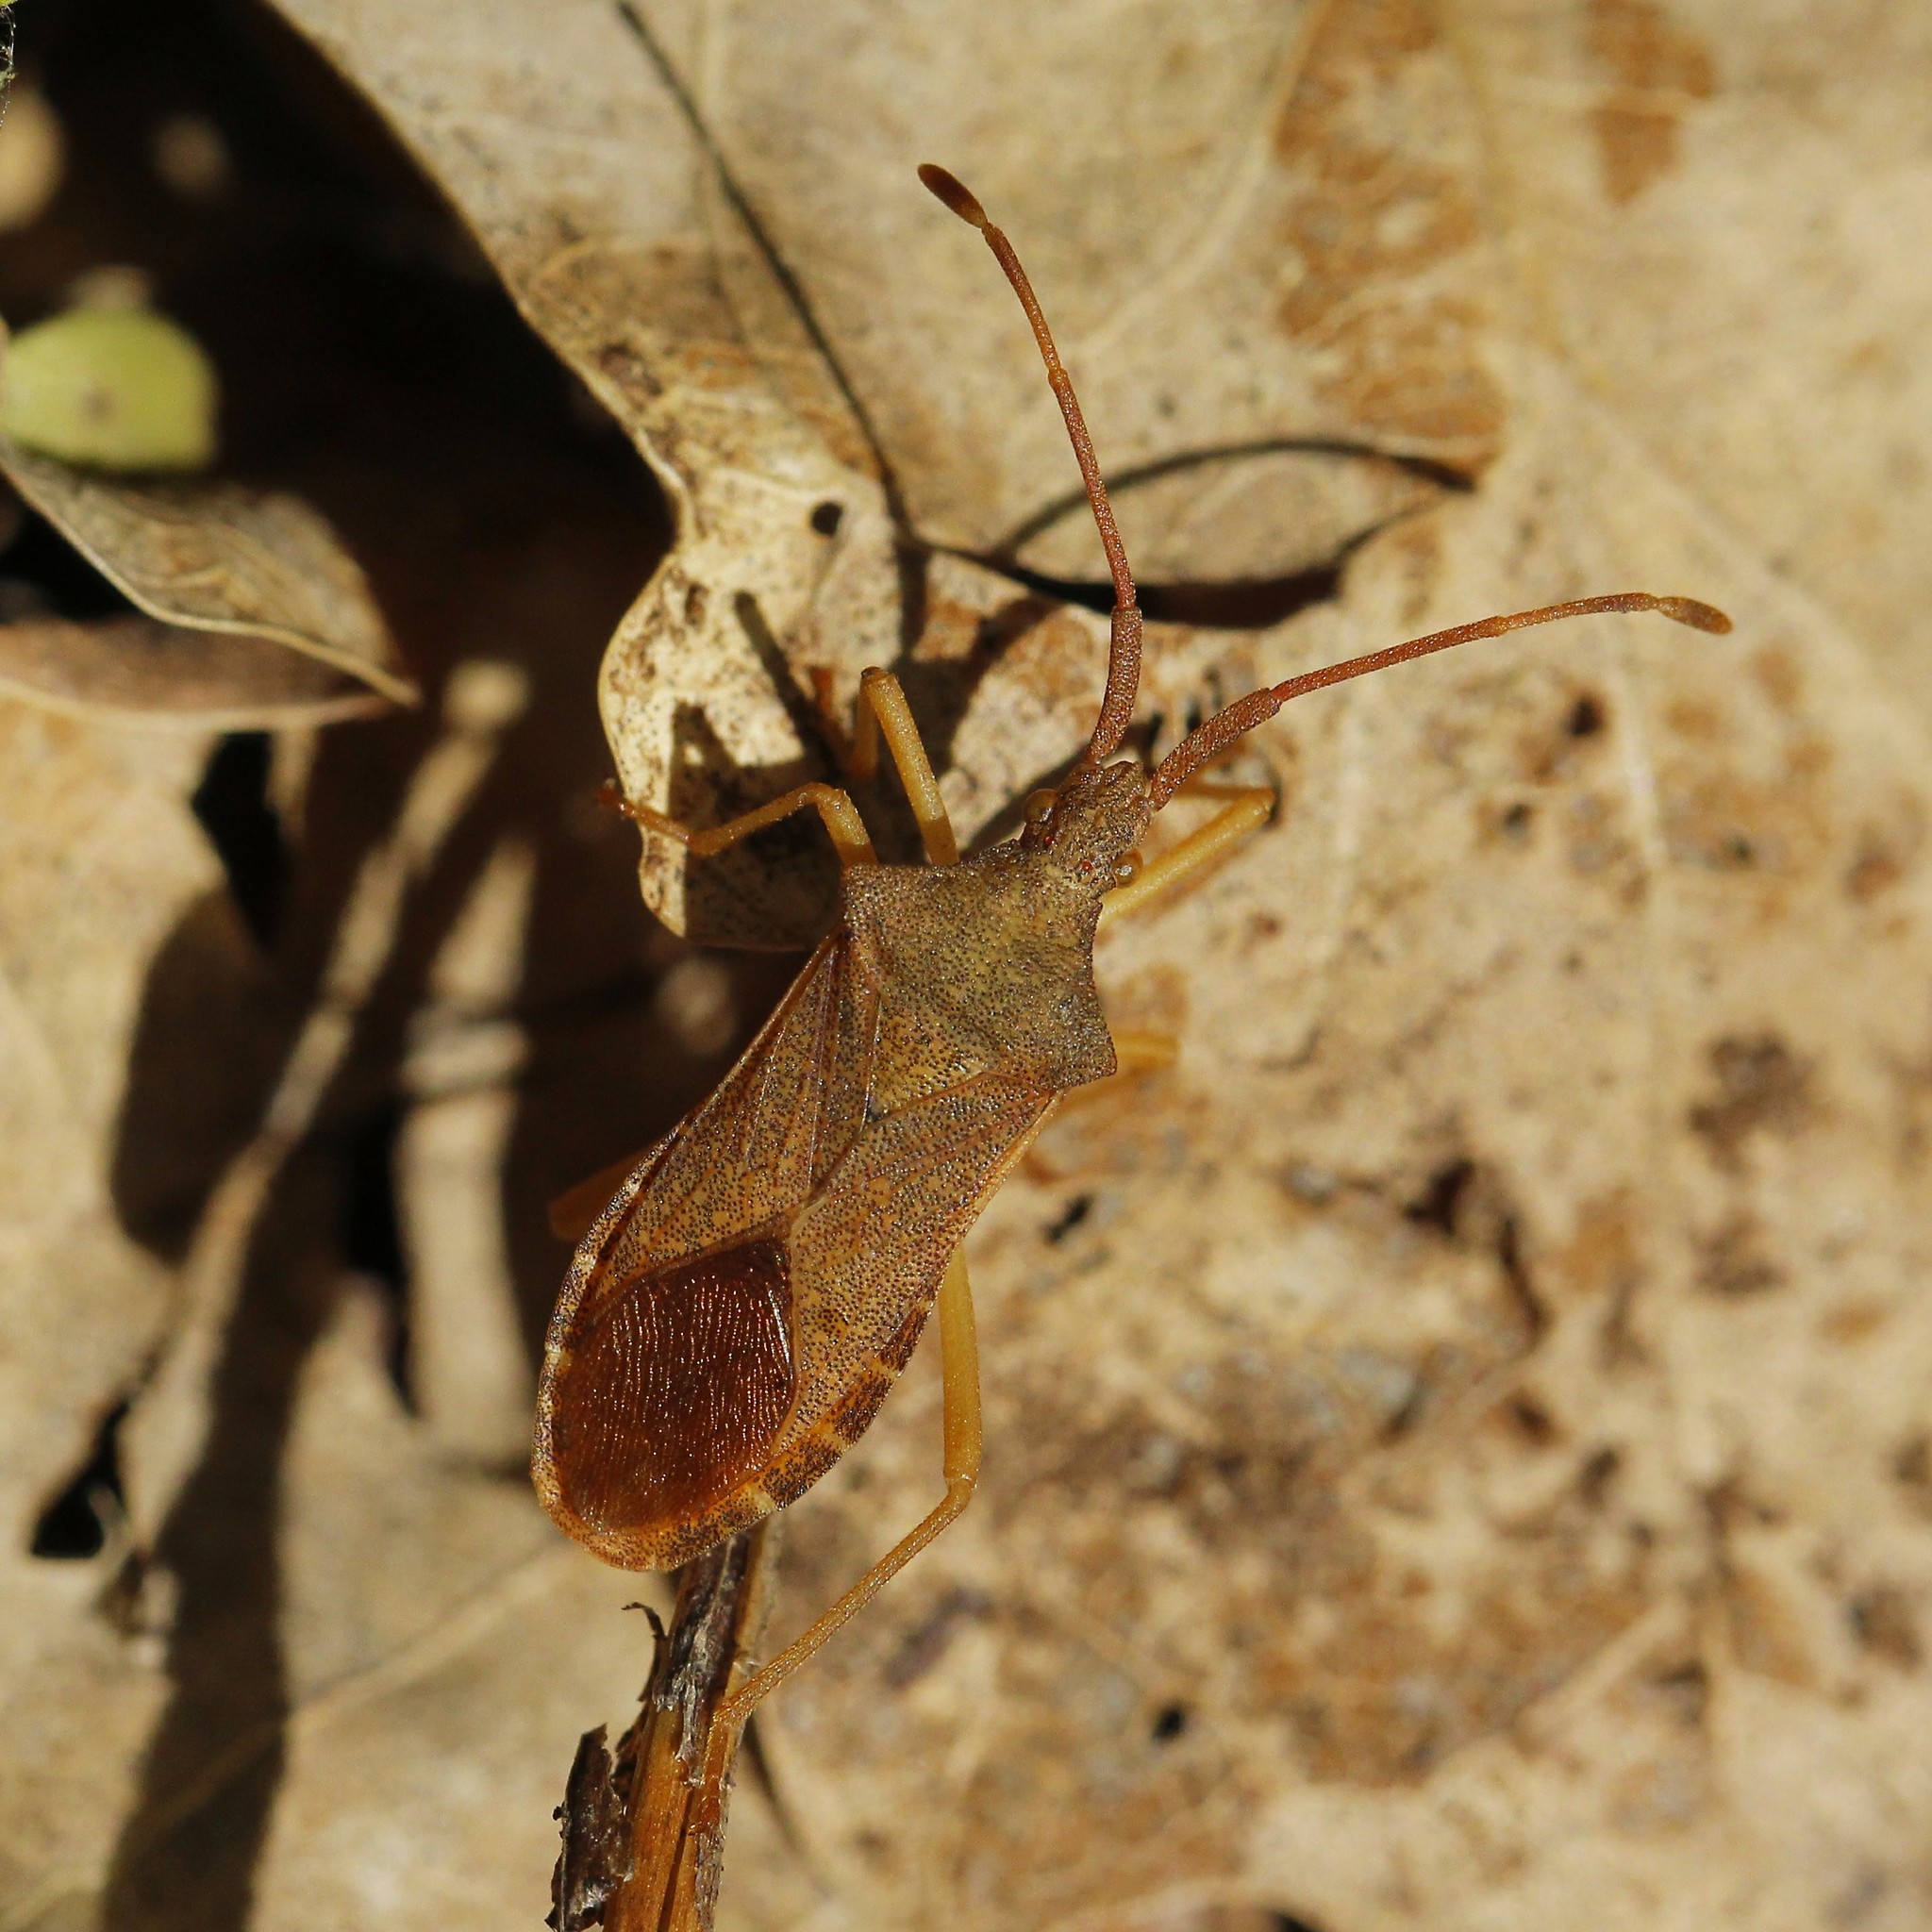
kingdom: Animalia
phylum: Arthropoda
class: Insecta
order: Hemiptera
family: Coreidae
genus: Gonocerus
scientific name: Gonocerus acuteangulatus
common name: Box bug
